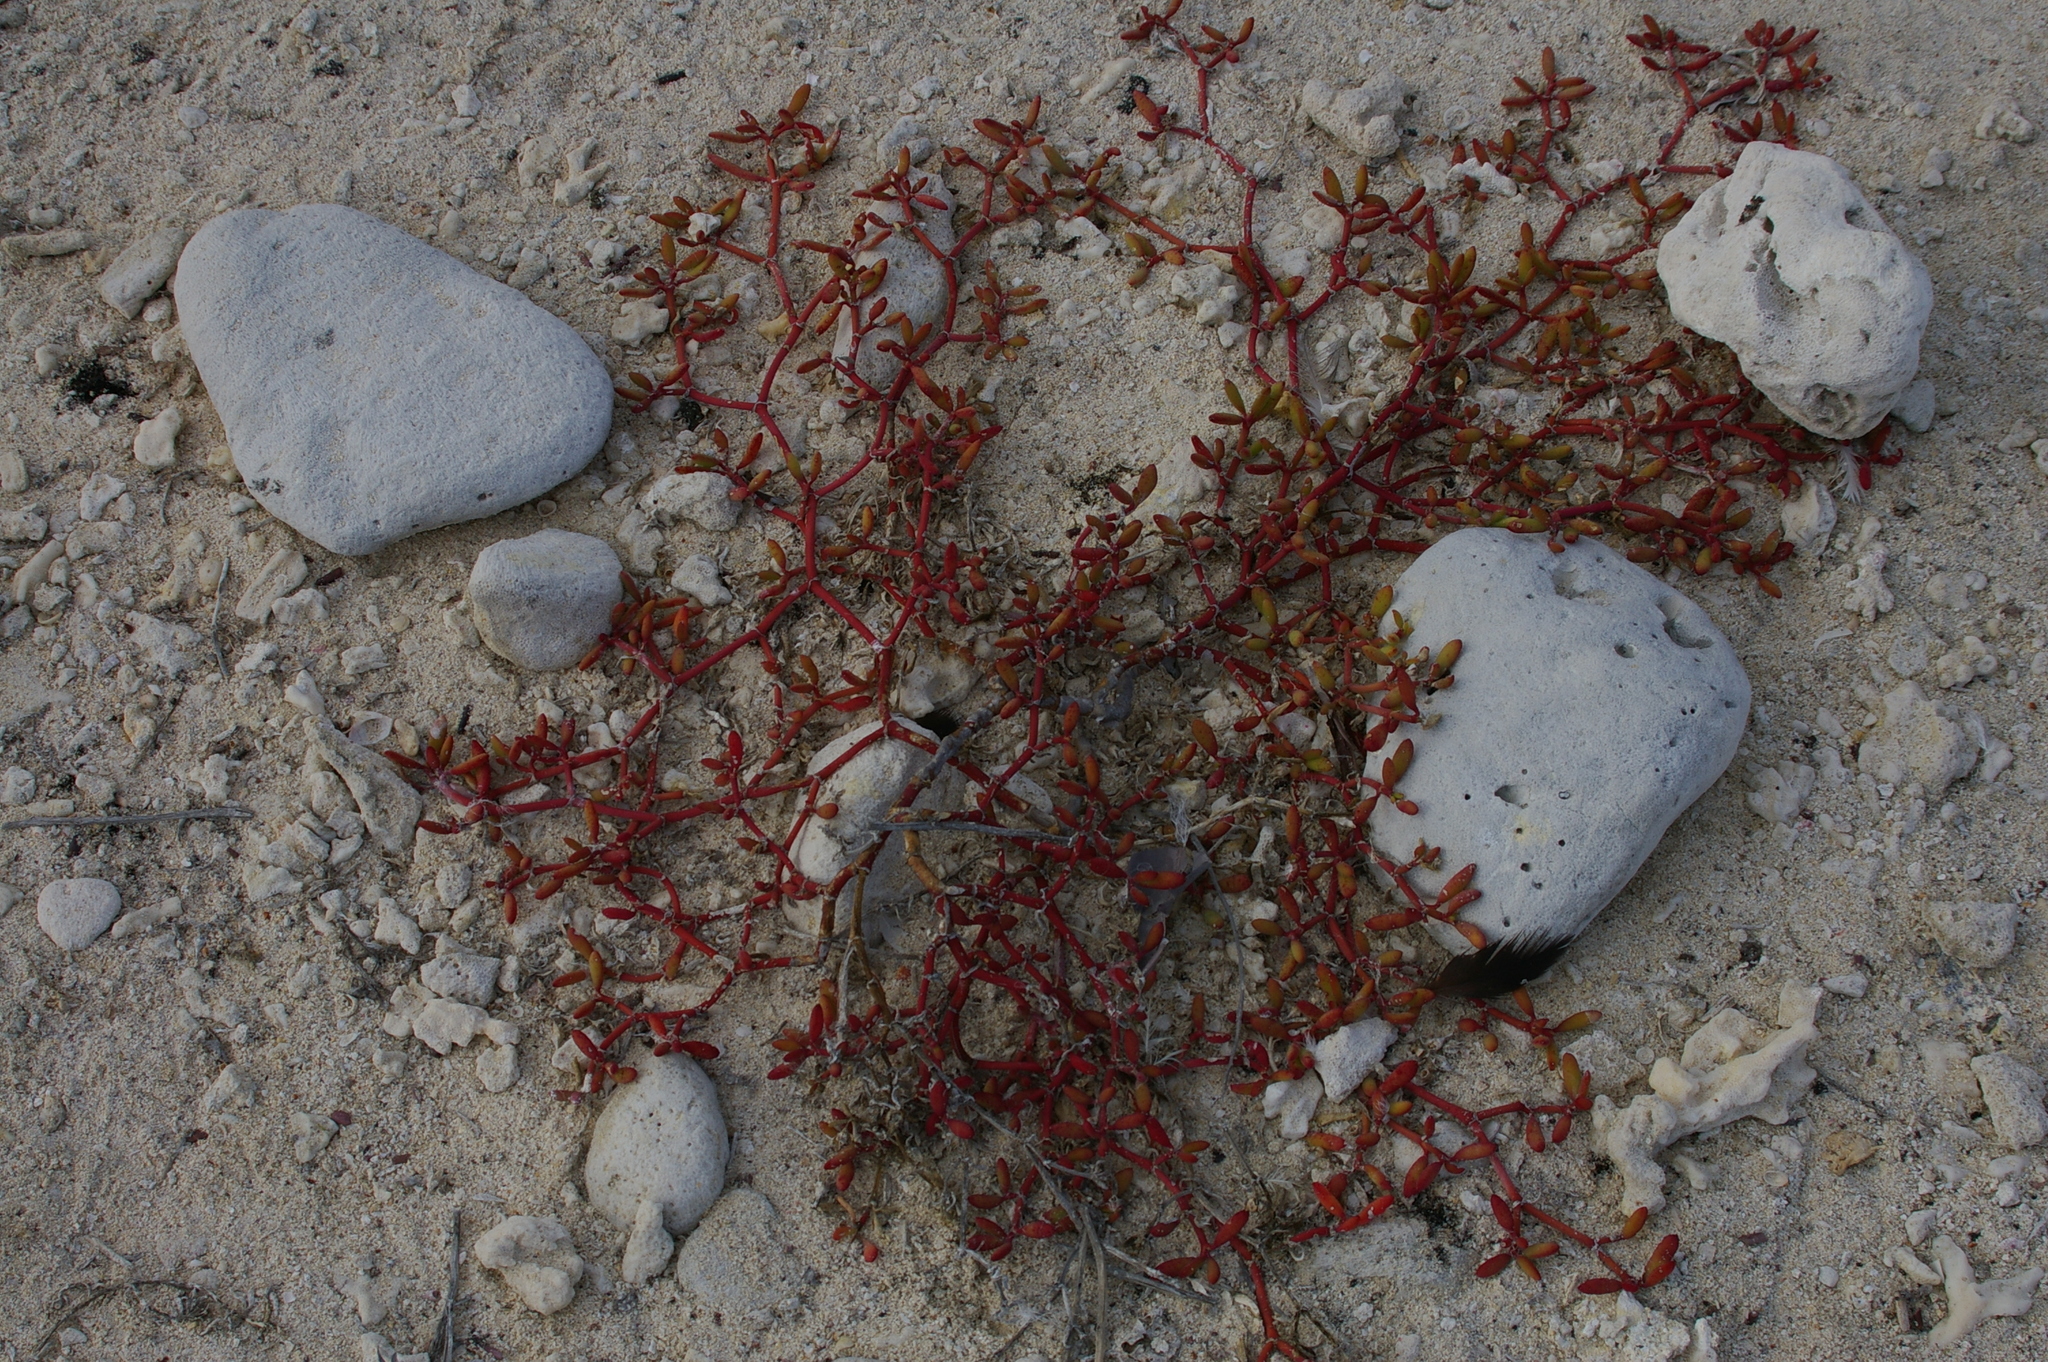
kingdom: Plantae
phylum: Tracheophyta
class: Magnoliopsida
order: Caryophyllales
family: Aizoaceae
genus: Sesuvium
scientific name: Sesuvium edmonstonei
